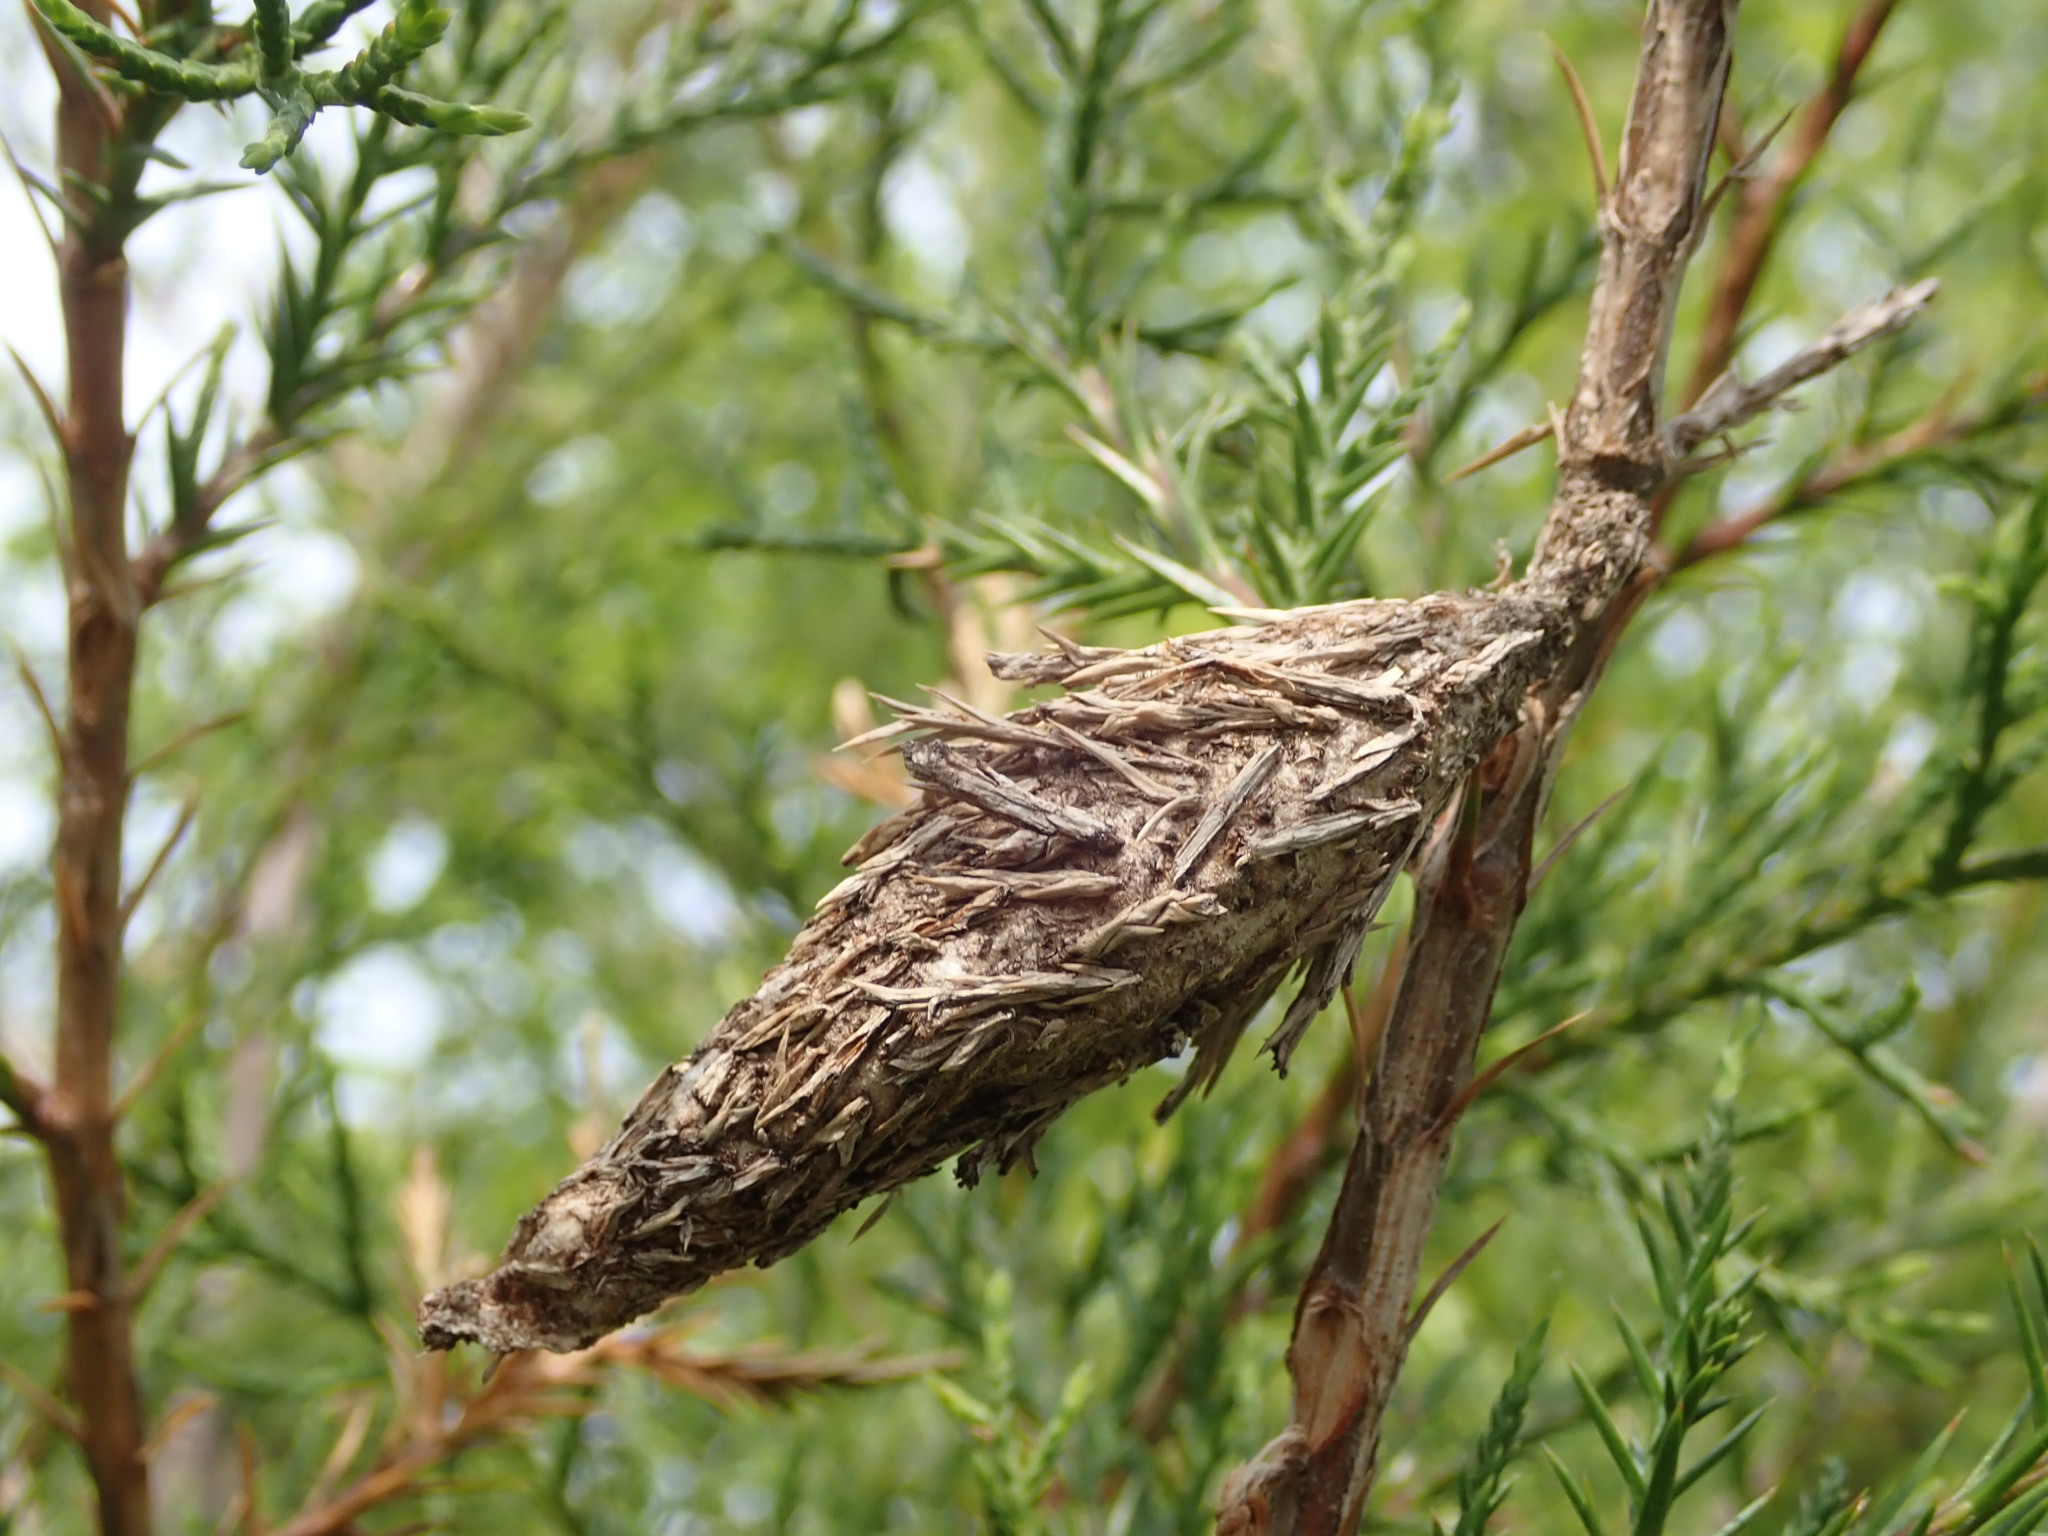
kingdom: Animalia
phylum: Arthropoda
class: Insecta
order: Lepidoptera
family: Psychidae
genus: Thyridopteryx
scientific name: Thyridopteryx ephemeraeformis
